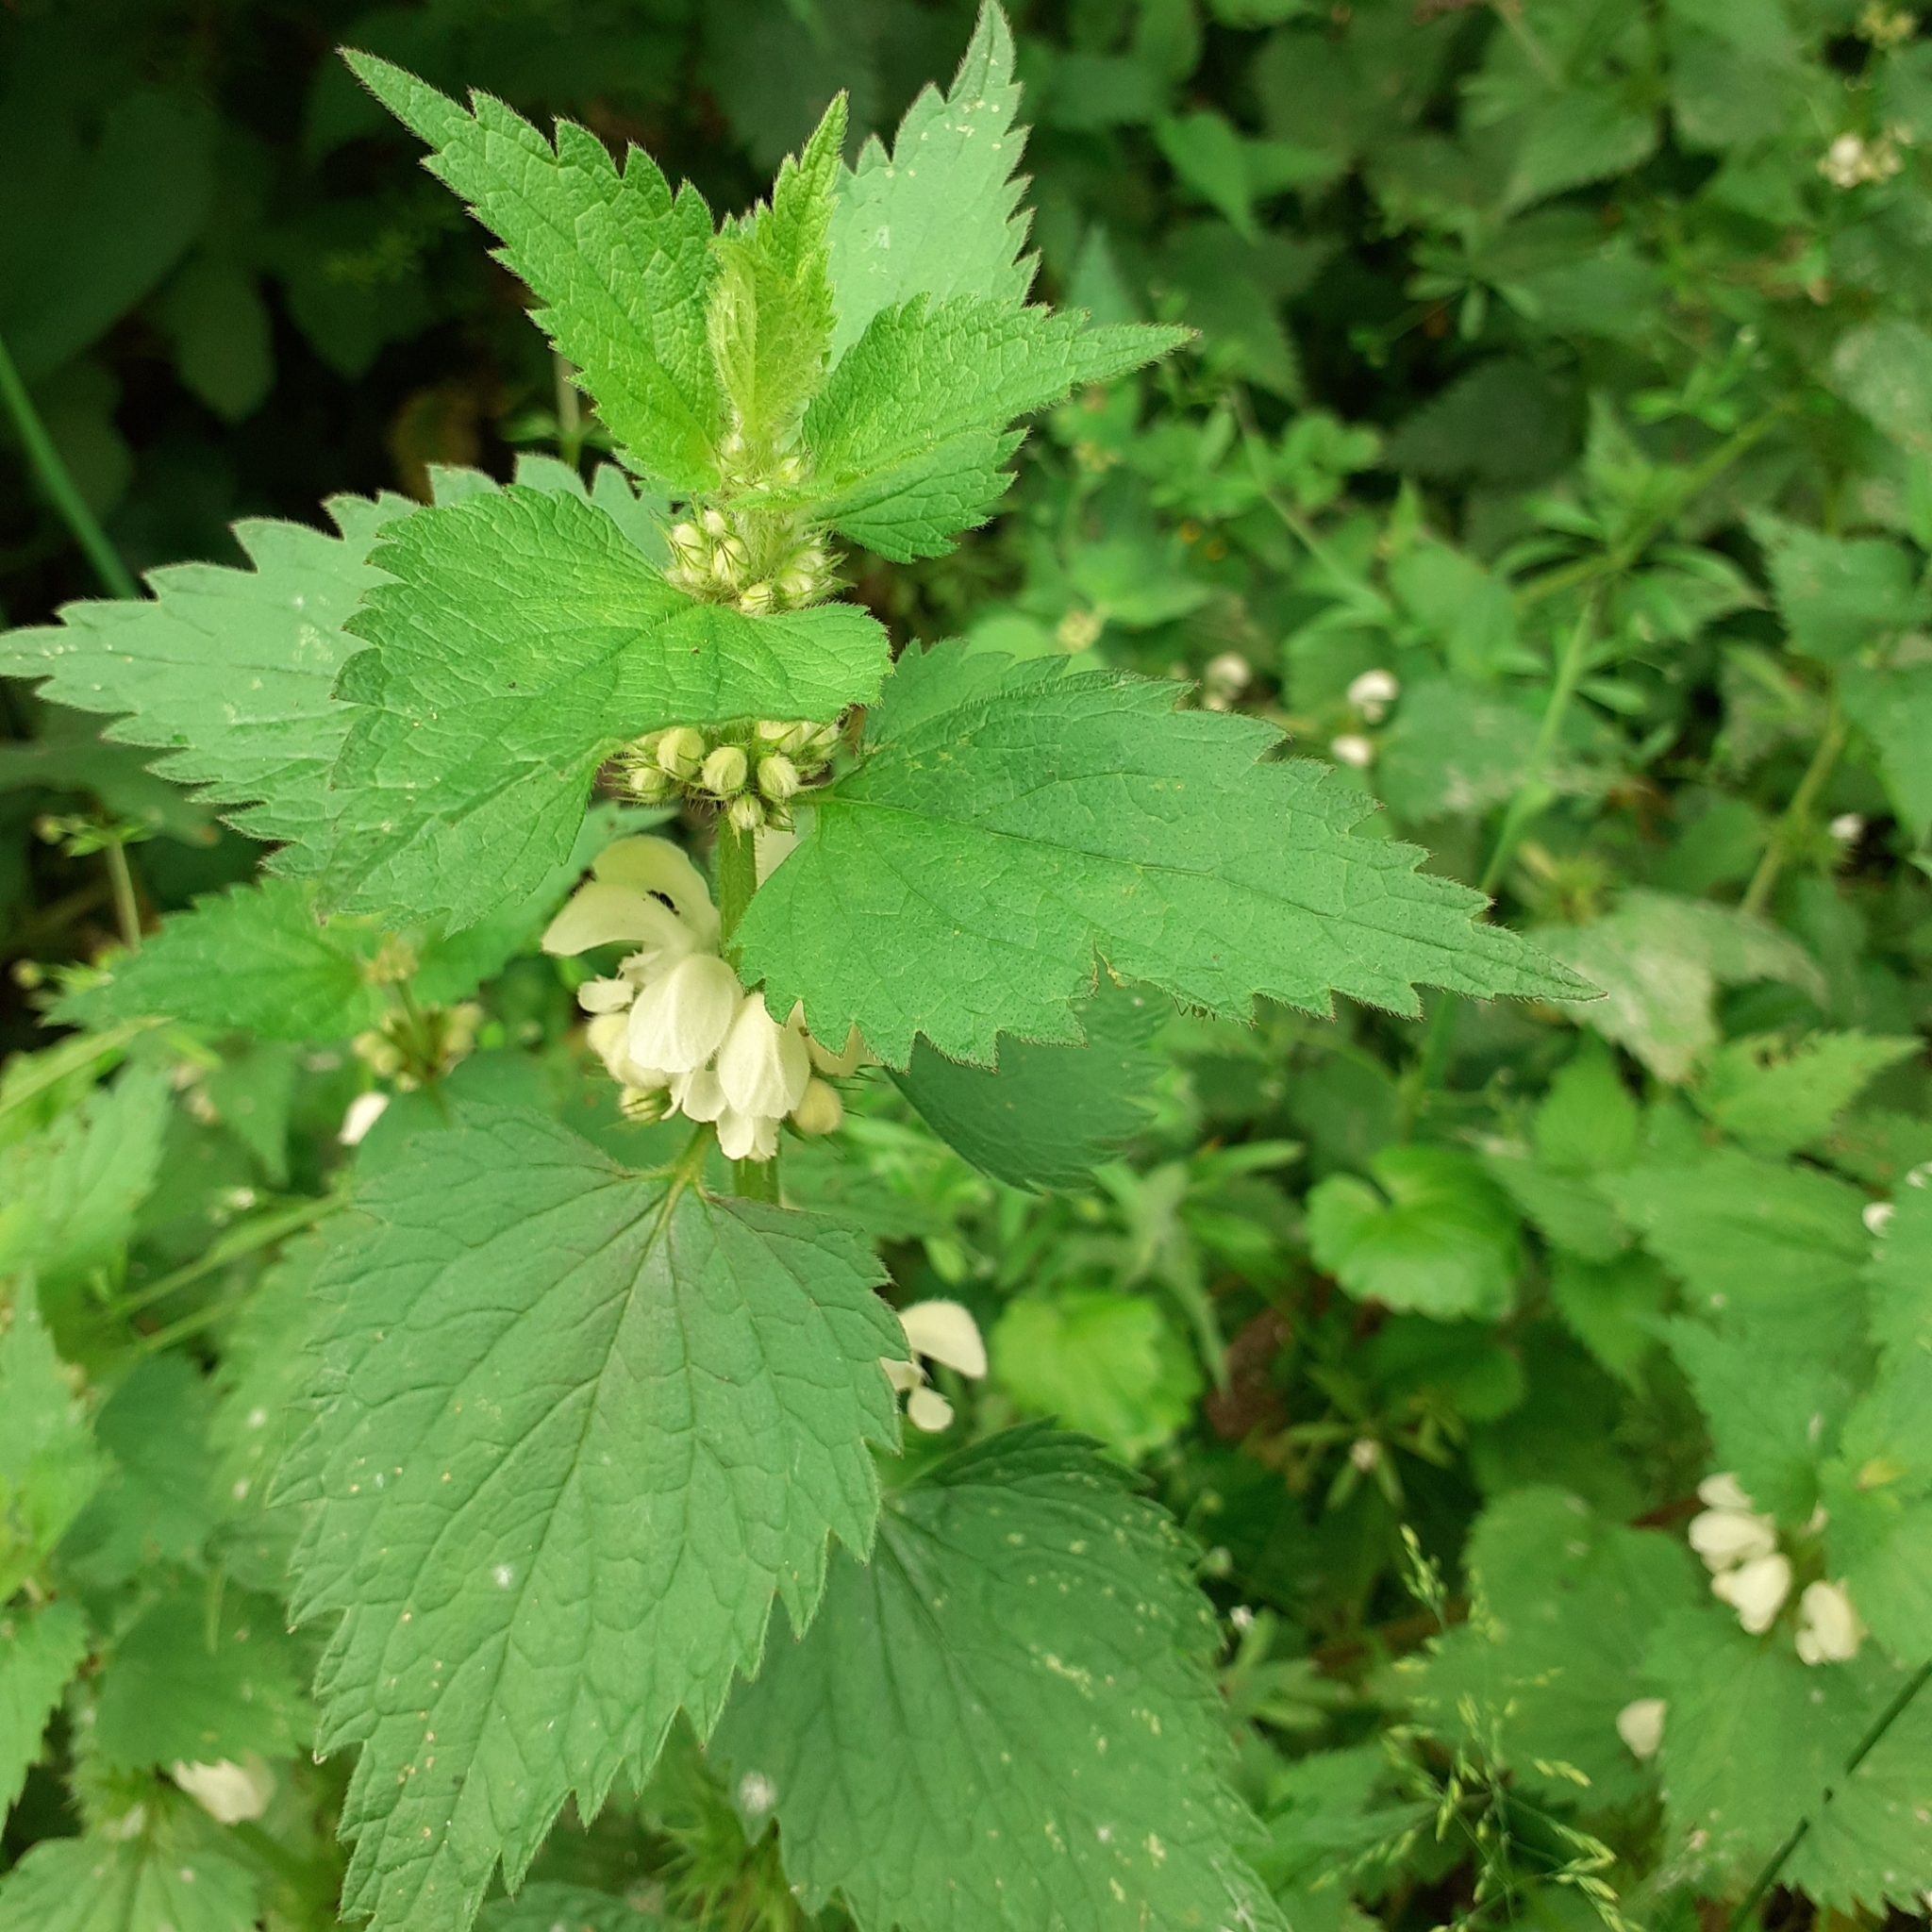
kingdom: Plantae
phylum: Tracheophyta
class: Magnoliopsida
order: Lamiales
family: Lamiaceae
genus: Lamium
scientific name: Lamium album
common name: White dead-nettle
